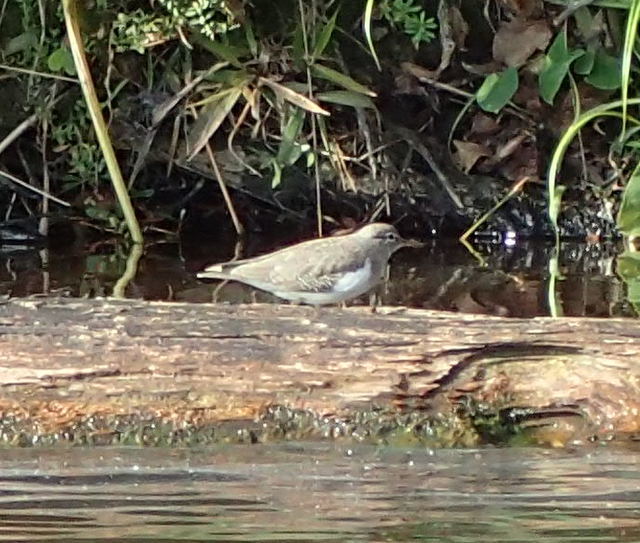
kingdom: Animalia
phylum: Chordata
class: Aves
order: Charadriiformes
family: Scolopacidae
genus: Actitis
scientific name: Actitis macularius
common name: Spotted sandpiper
